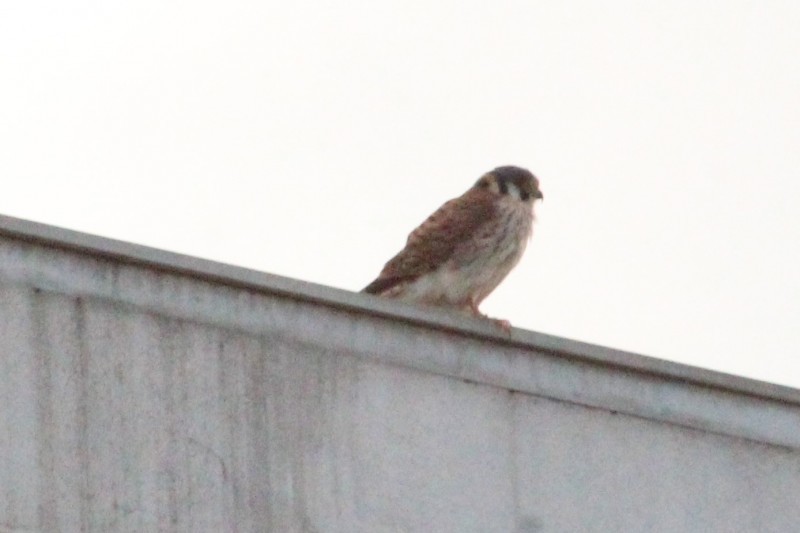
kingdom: Animalia
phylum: Chordata
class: Aves
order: Falconiformes
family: Falconidae
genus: Falco
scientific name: Falco sparverius
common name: American kestrel
